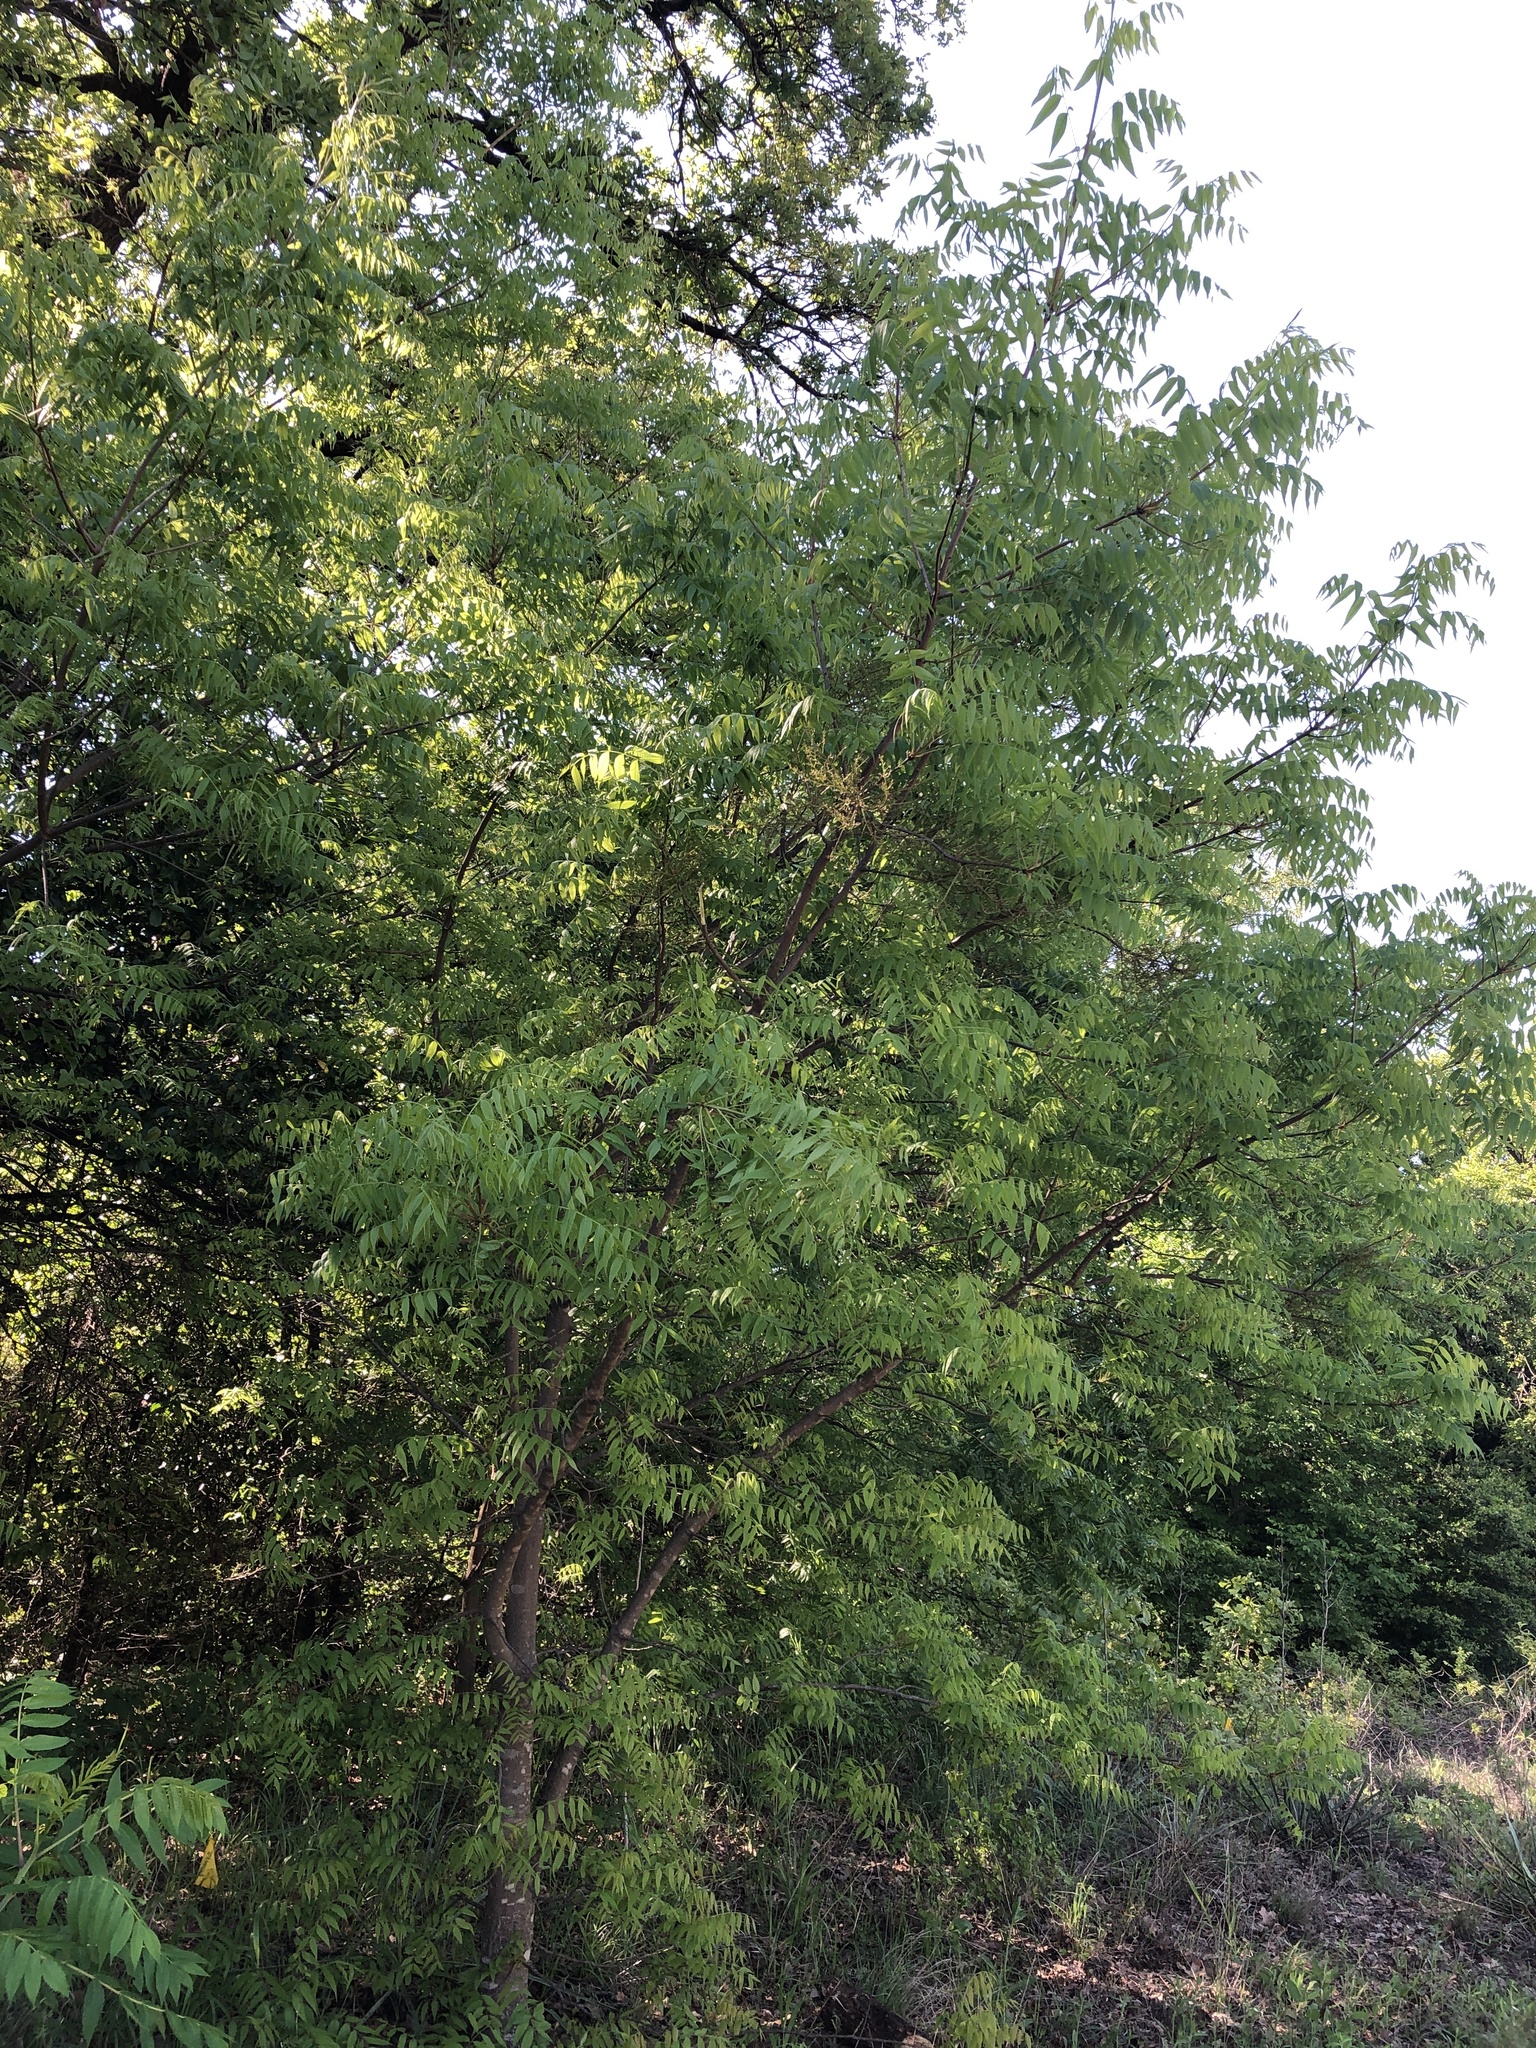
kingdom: Plantae
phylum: Tracheophyta
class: Magnoliopsida
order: Sapindales
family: Anacardiaceae
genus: Pistacia
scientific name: Pistacia chinensis
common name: Chinese pistache
